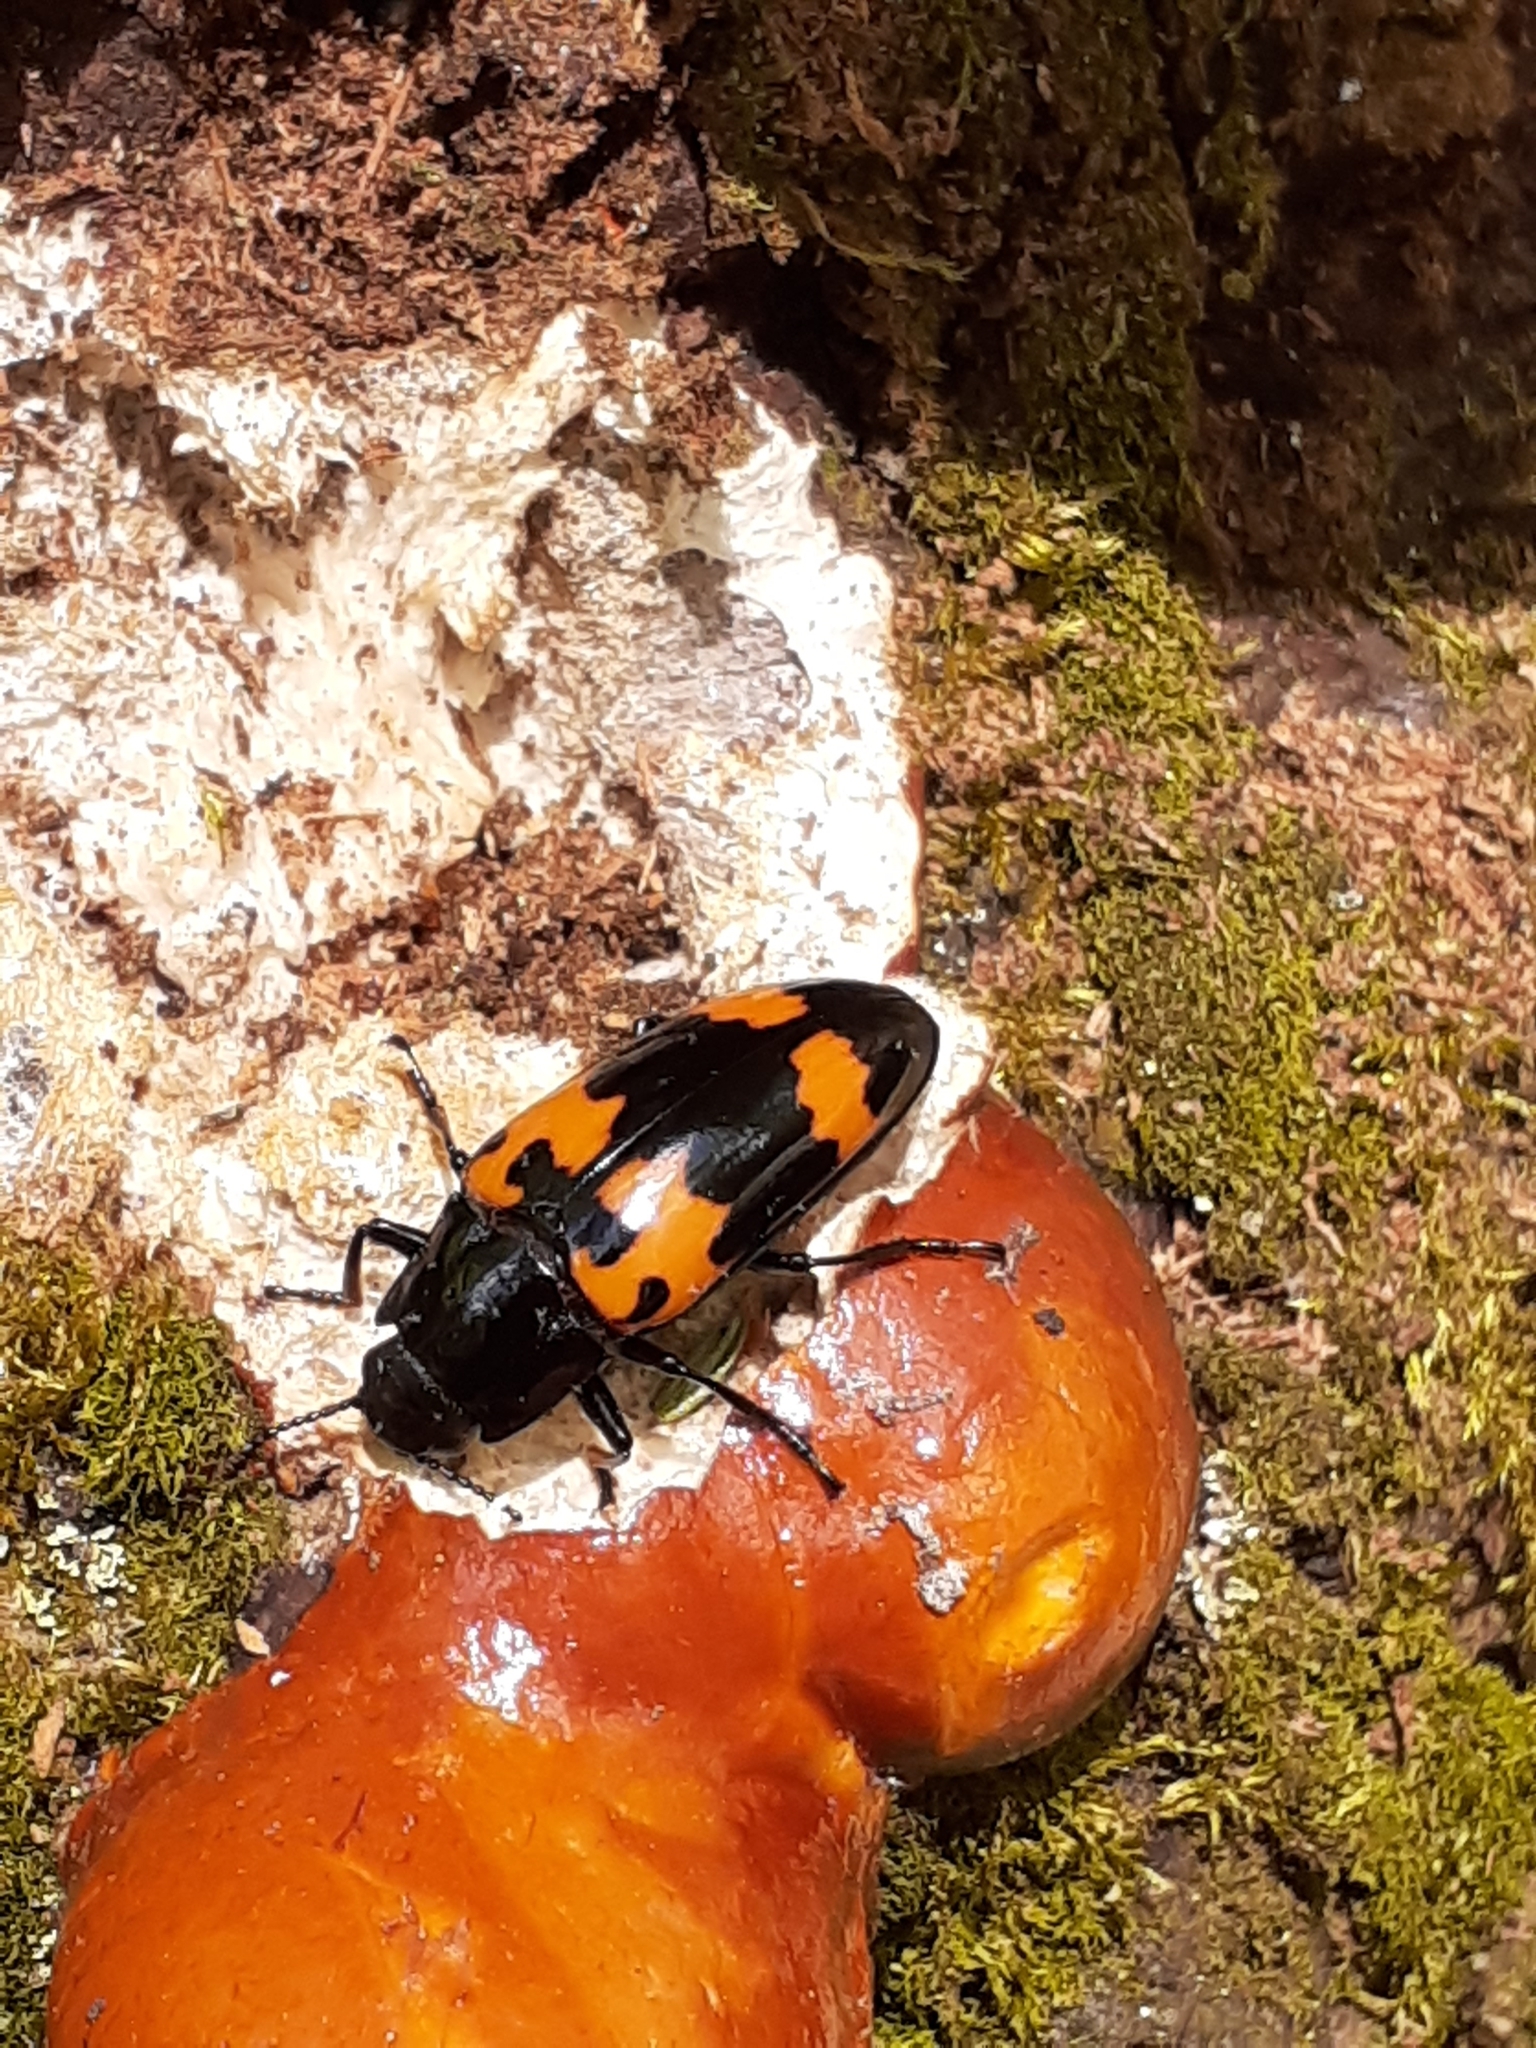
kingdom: Animalia
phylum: Arthropoda
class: Insecta
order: Coleoptera
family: Erotylidae
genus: Megalodacne
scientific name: Megalodacne heros
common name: Pleasing fungus beetle
